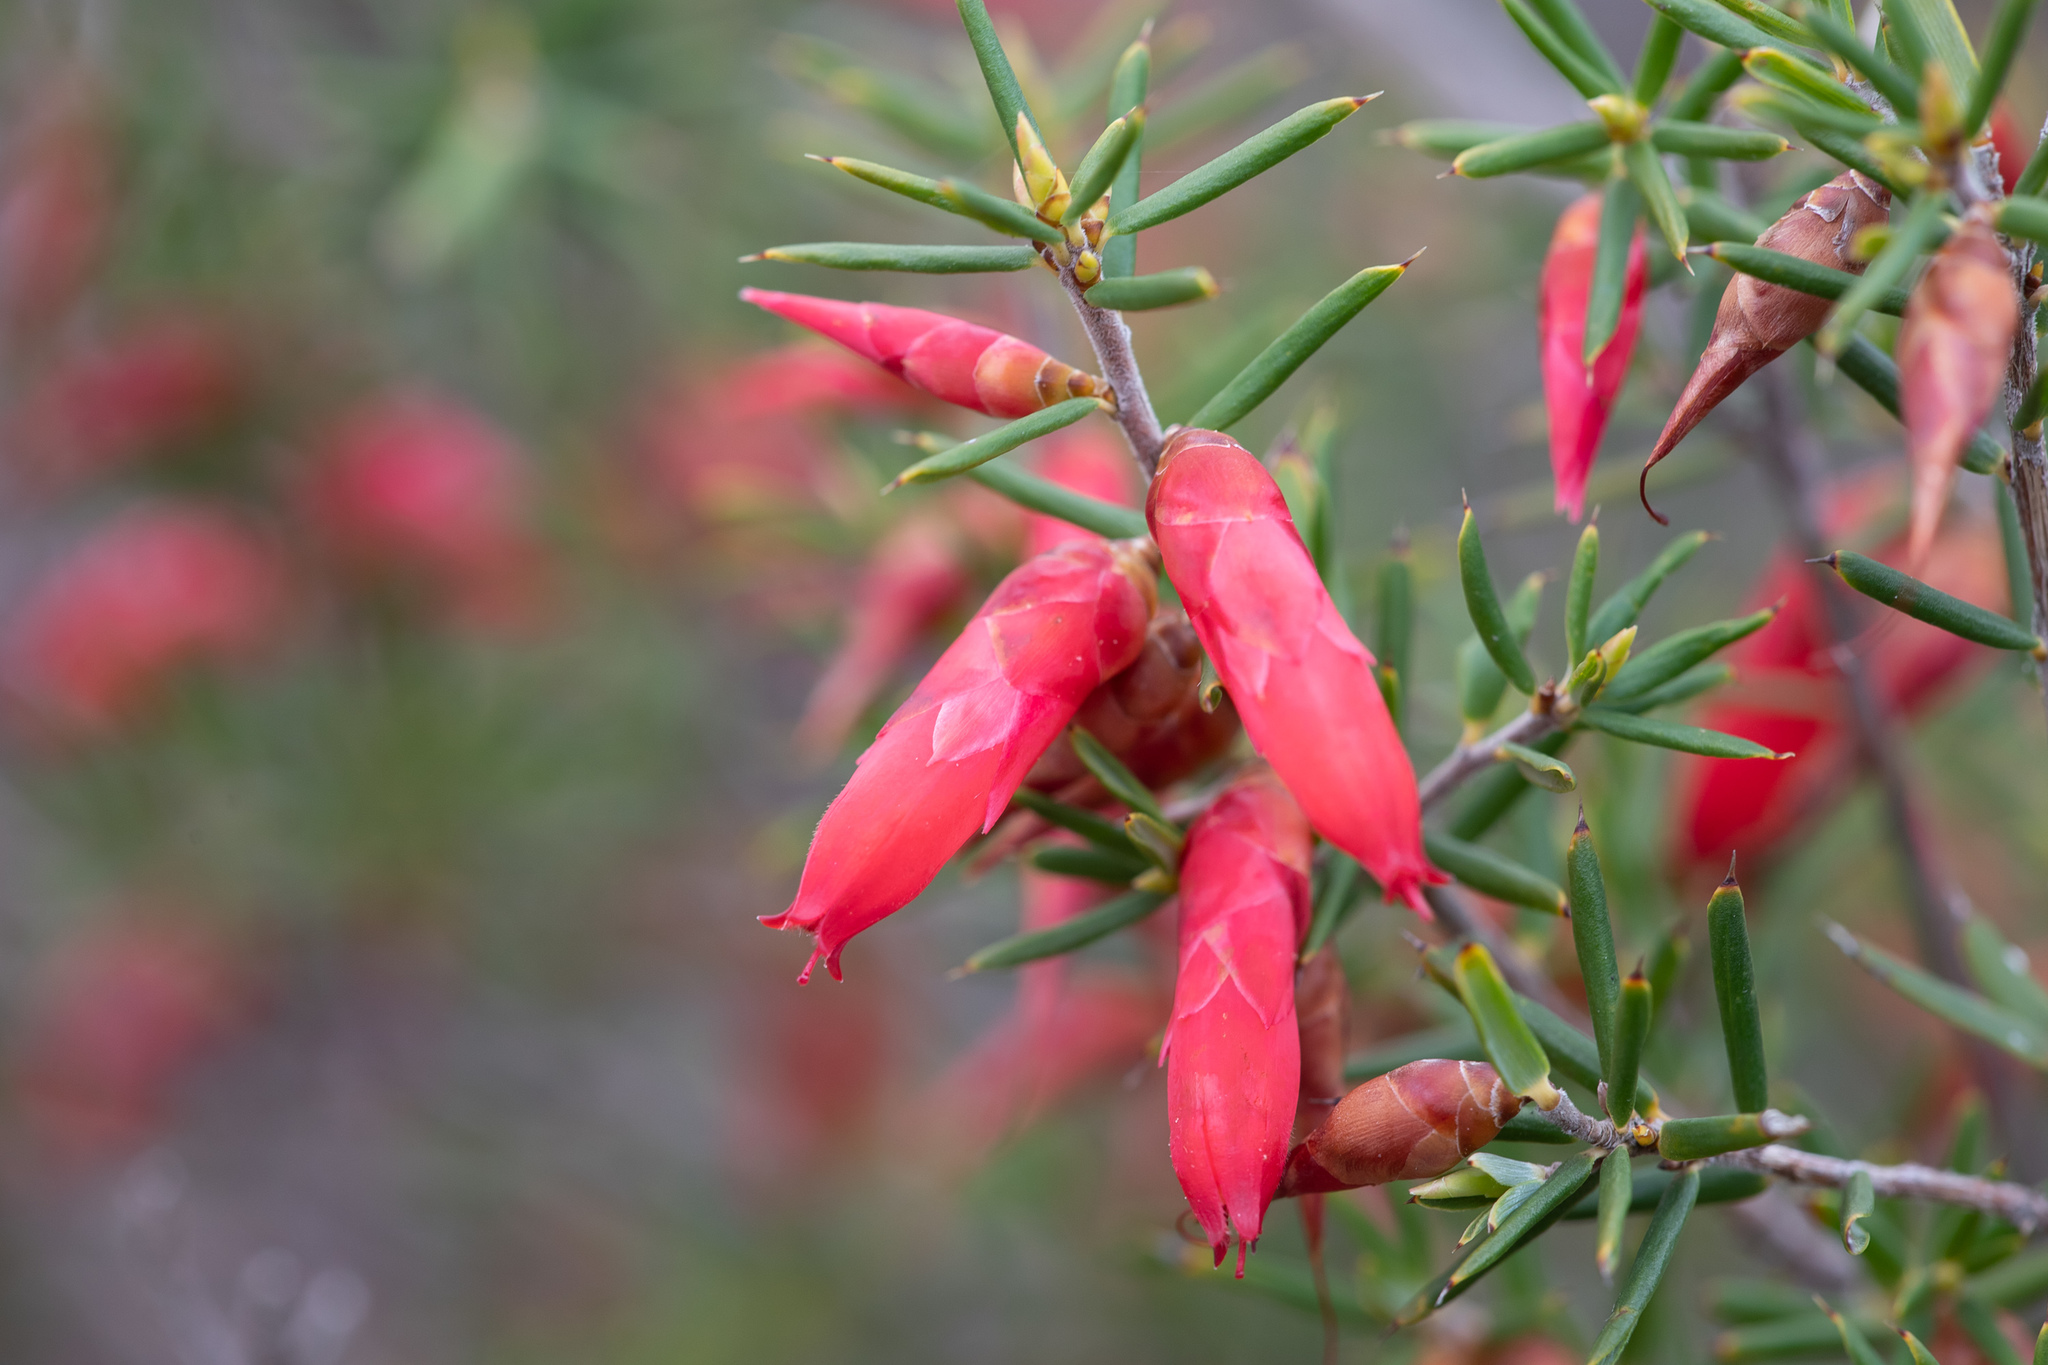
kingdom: Plantae
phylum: Tracheophyta
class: Magnoliopsida
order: Ericales
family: Ericaceae
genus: Stenanthera
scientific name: Stenanthera conostephioides
